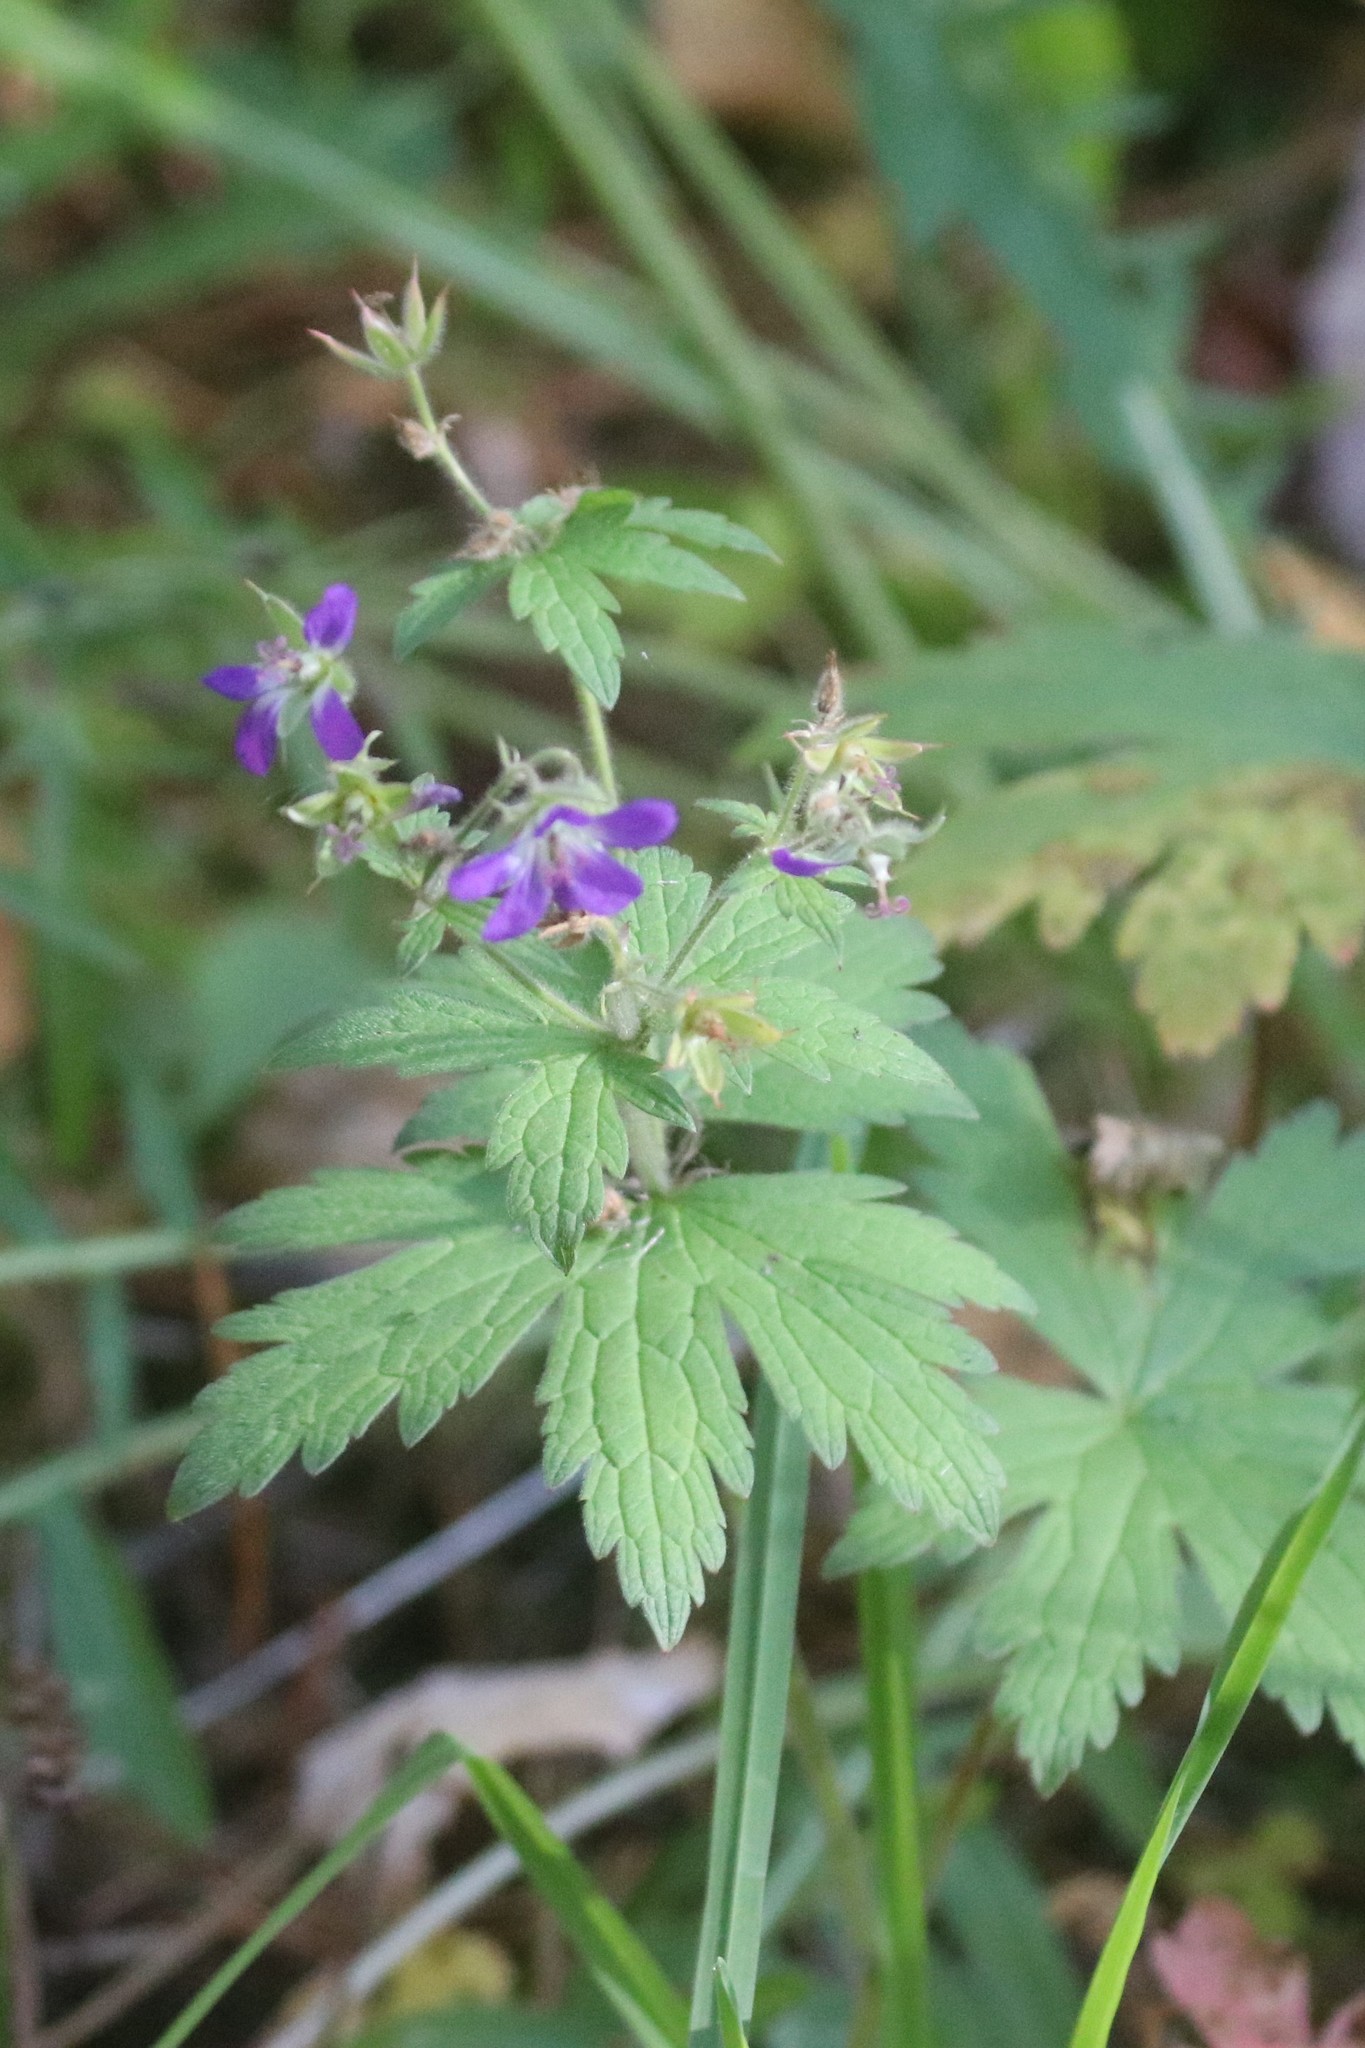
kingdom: Plantae
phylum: Tracheophyta
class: Magnoliopsida
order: Geraniales
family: Geraniaceae
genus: Geranium
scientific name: Geranium sylvaticum
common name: Wood crane's-bill
